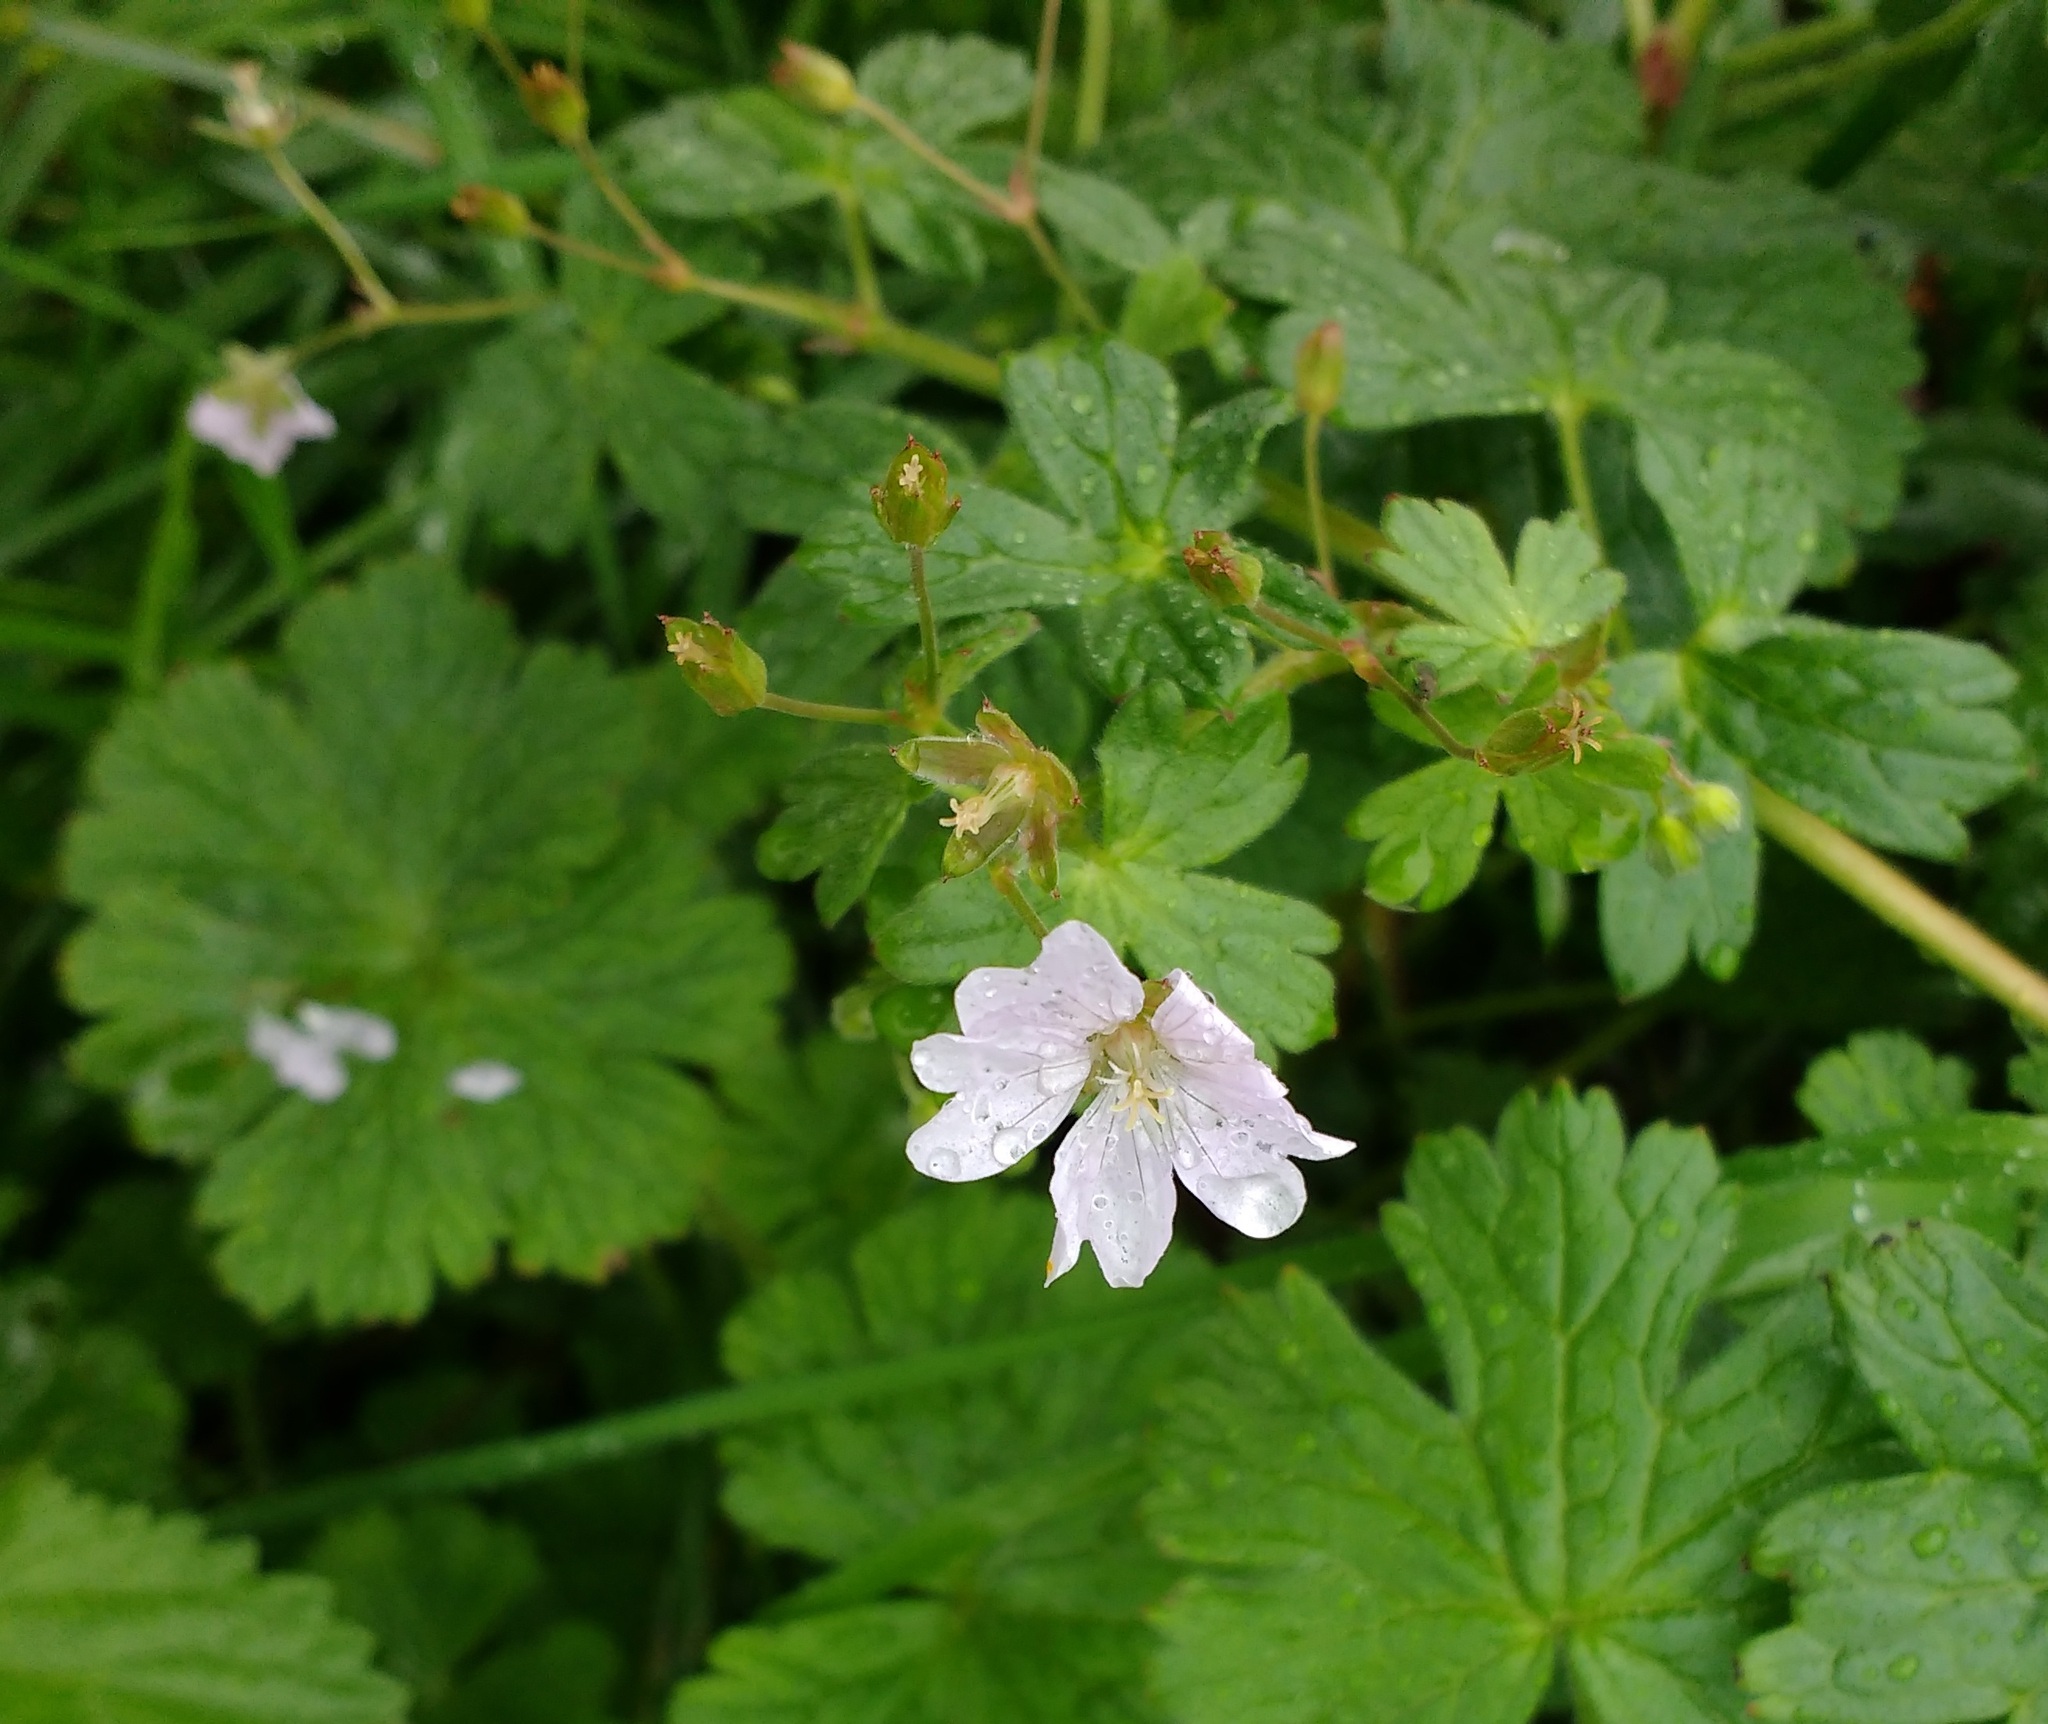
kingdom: Plantae
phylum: Tracheophyta
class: Magnoliopsida
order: Geraniales
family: Geraniaceae
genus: Geranium
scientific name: Geranium pyrenaicum
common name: Hedgerow crane's-bill
